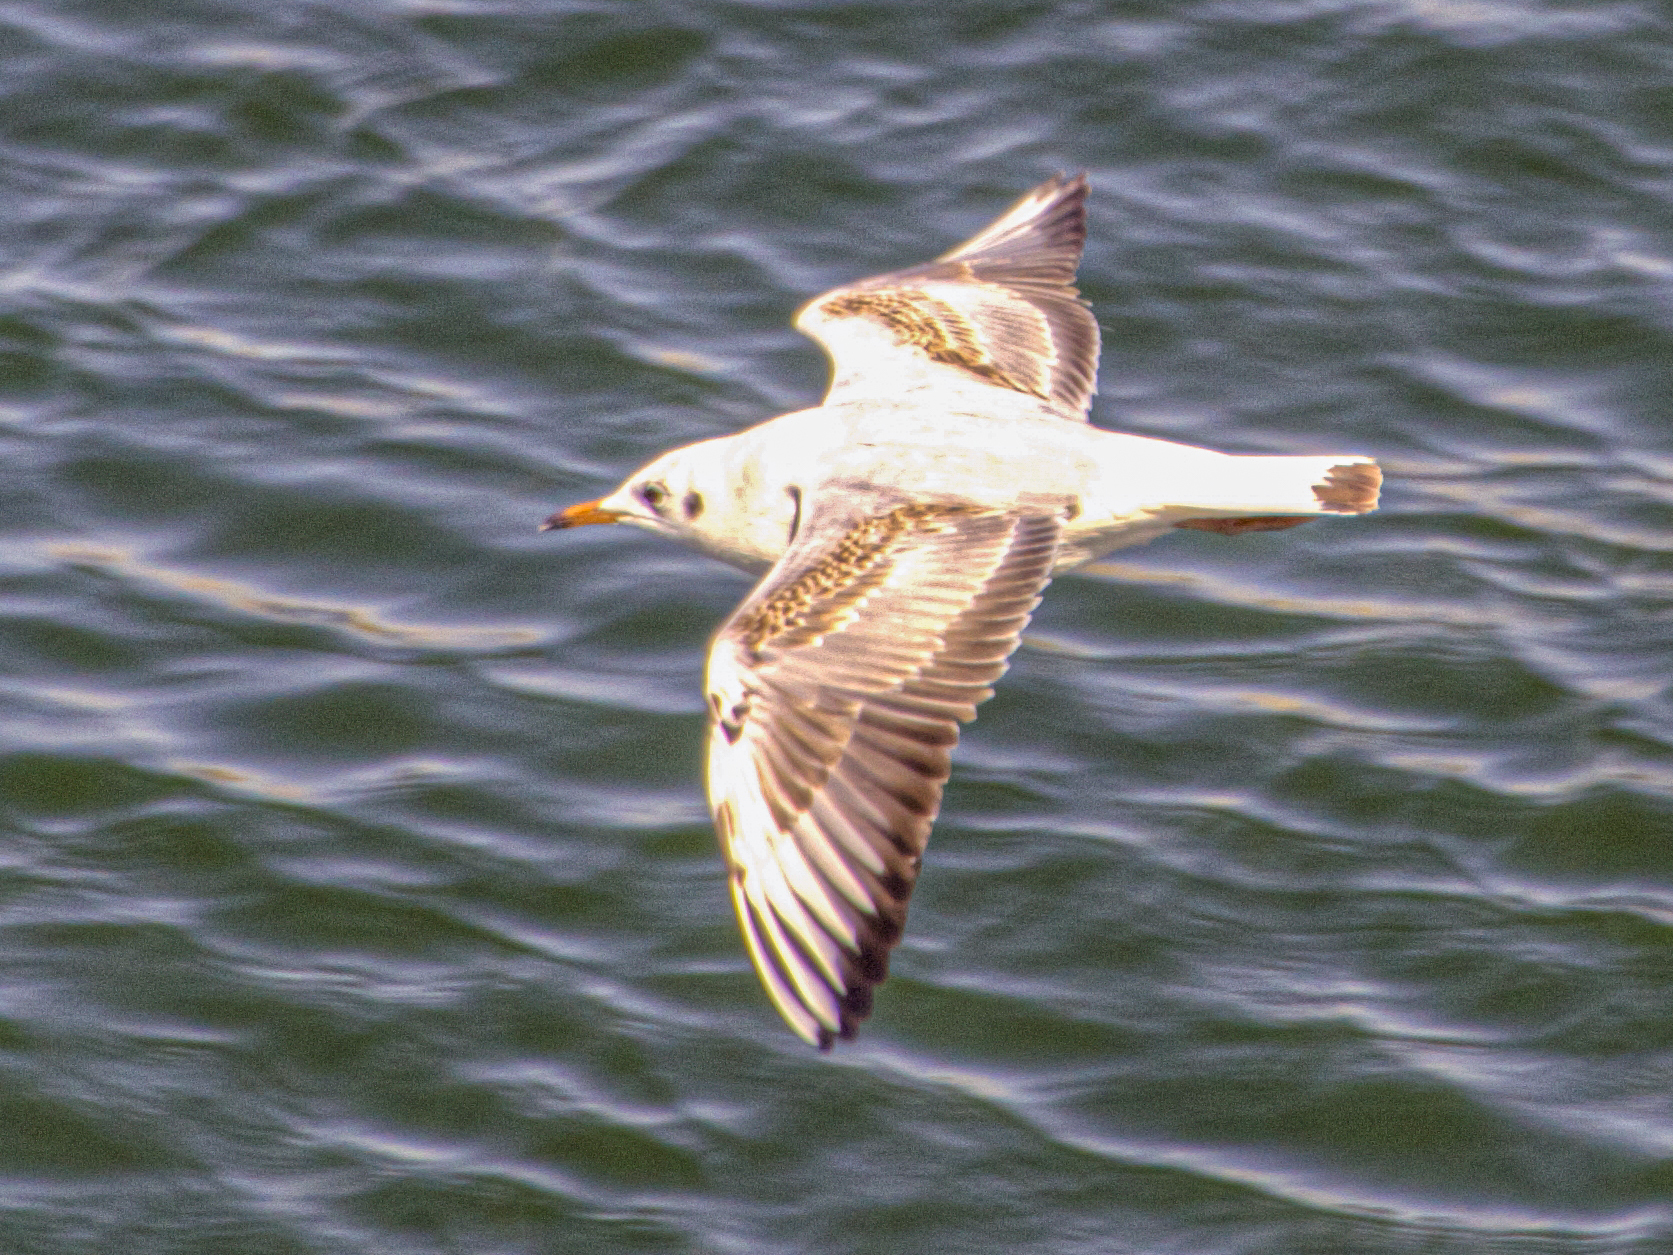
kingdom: Animalia
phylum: Chordata
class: Aves
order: Charadriiformes
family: Laridae
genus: Chroicocephalus
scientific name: Chroicocephalus ridibundus
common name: Black-headed gull
